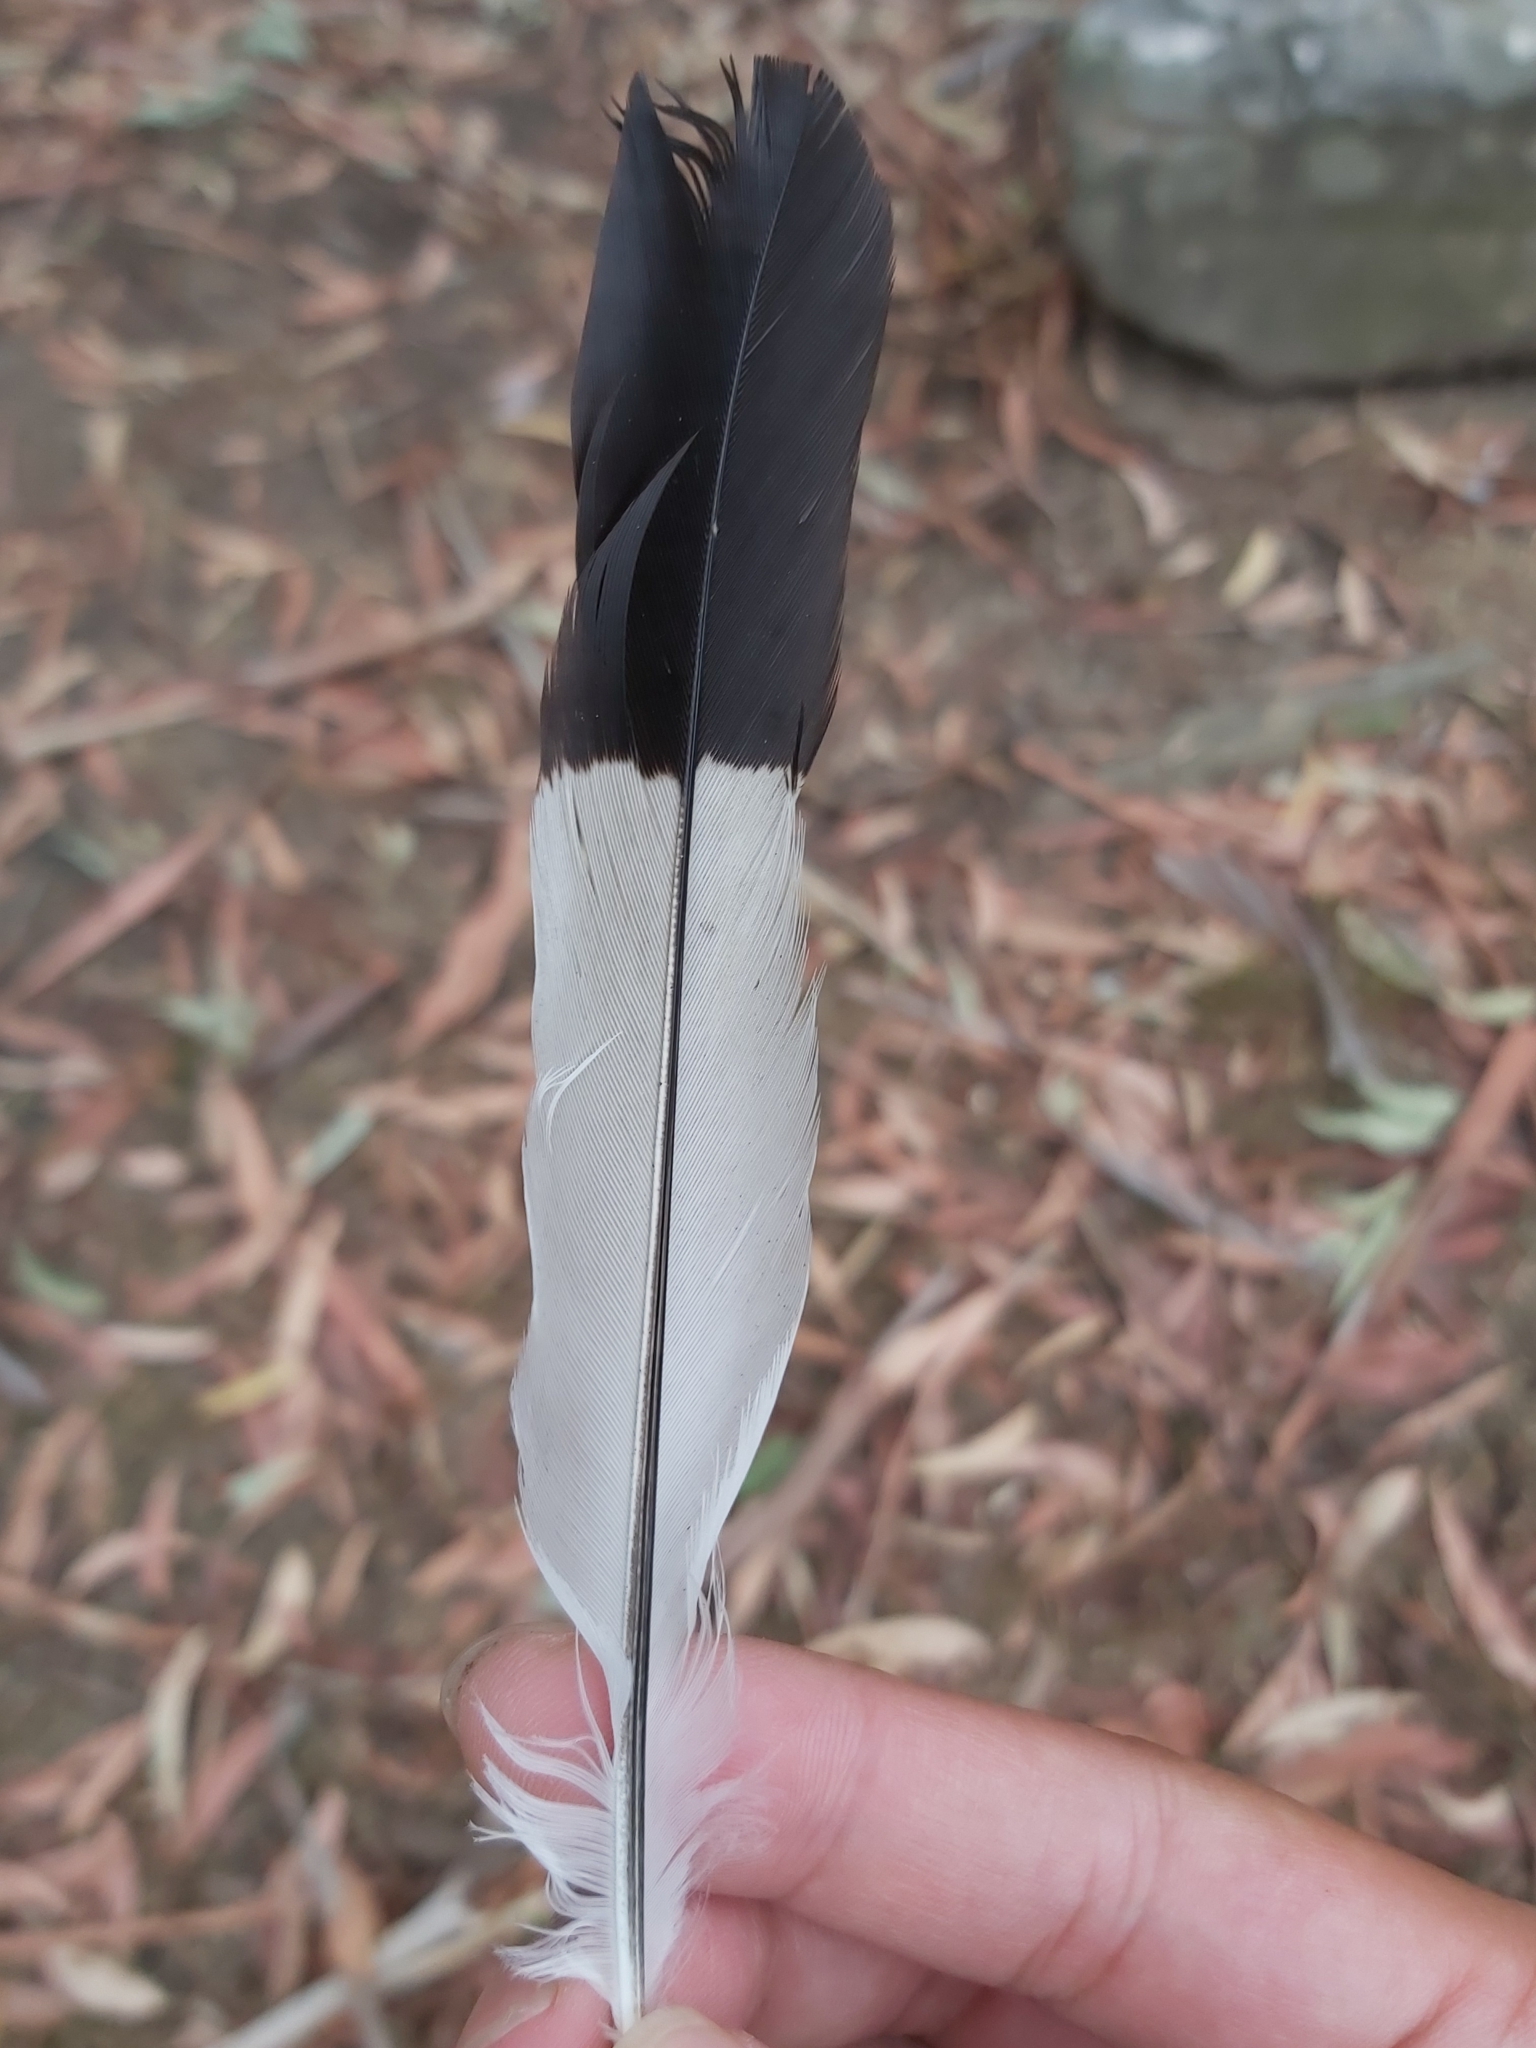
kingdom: Animalia
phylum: Chordata
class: Aves
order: Passeriformes
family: Cracticidae
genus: Gymnorhina
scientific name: Gymnorhina tibicen
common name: Australian magpie
